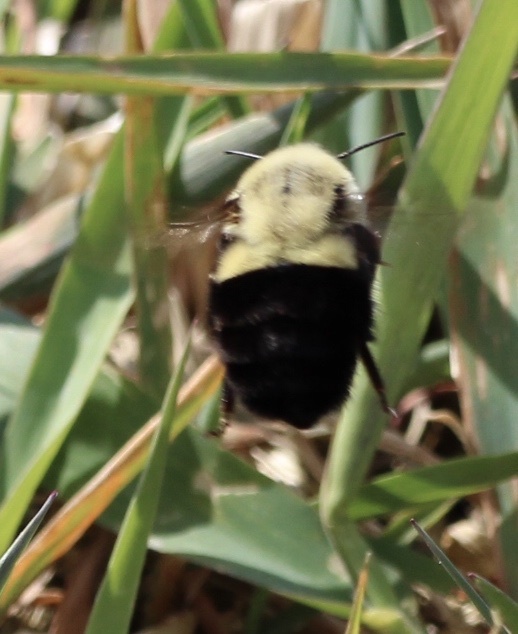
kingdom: Animalia
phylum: Arthropoda
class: Insecta
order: Hymenoptera
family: Apidae
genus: Bombus
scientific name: Bombus impatiens
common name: Common eastern bumble bee
